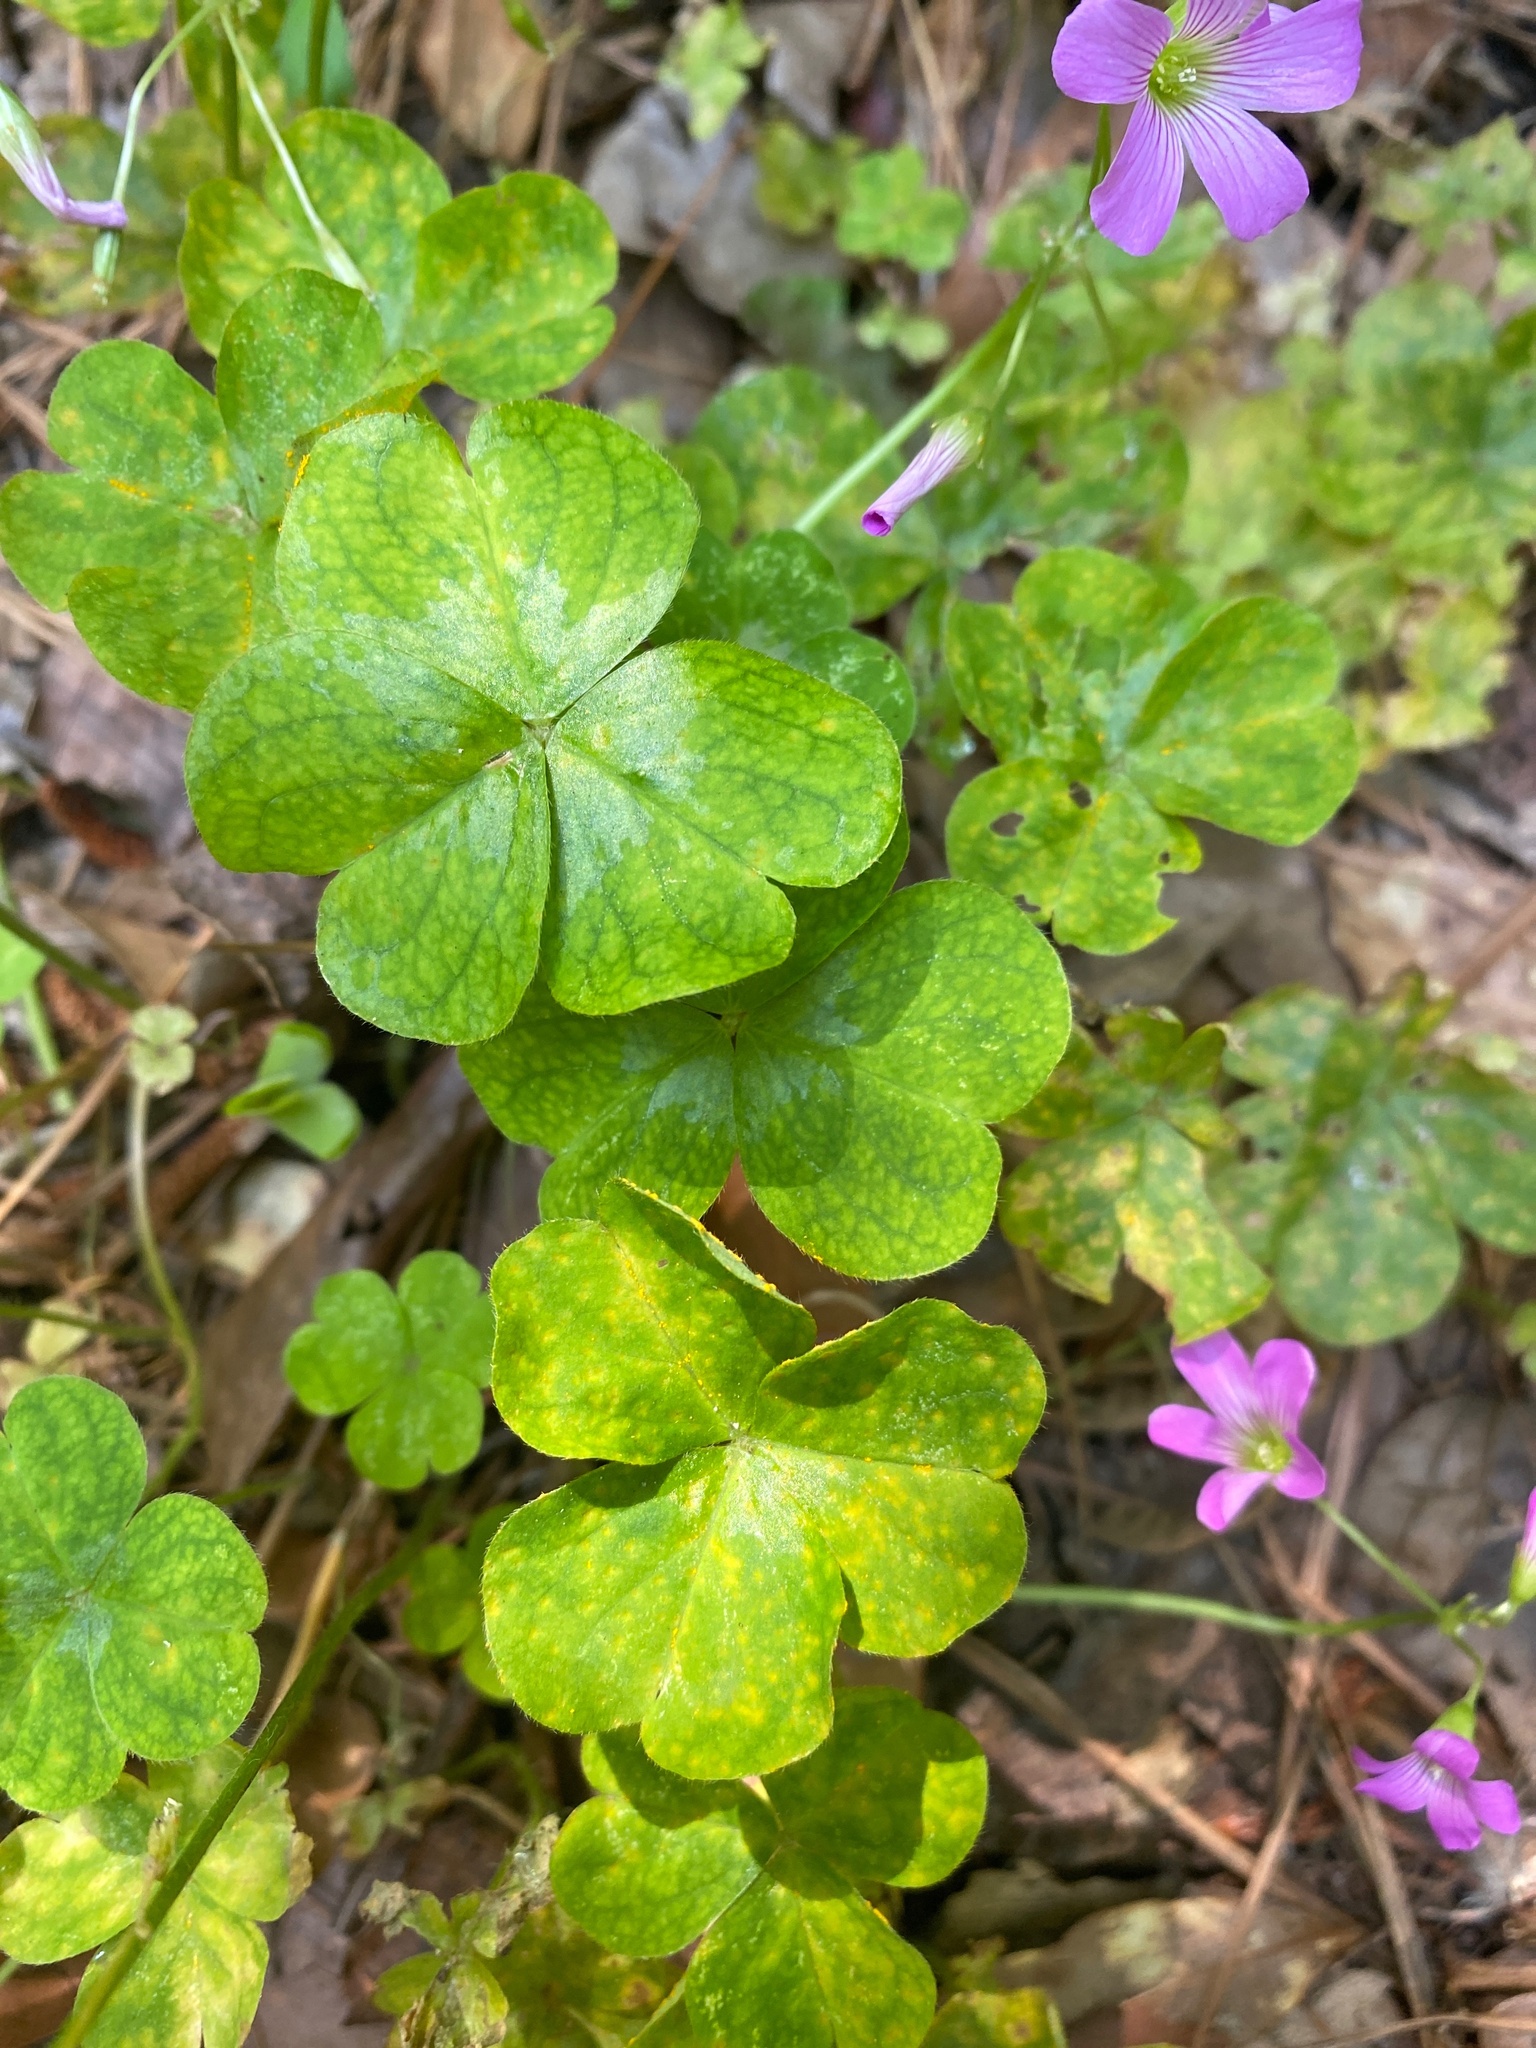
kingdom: Plantae
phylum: Tracheophyta
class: Magnoliopsida
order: Oxalidales
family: Oxalidaceae
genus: Oxalis
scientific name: Oxalis debilis
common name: Large-flowered pink-sorrel
